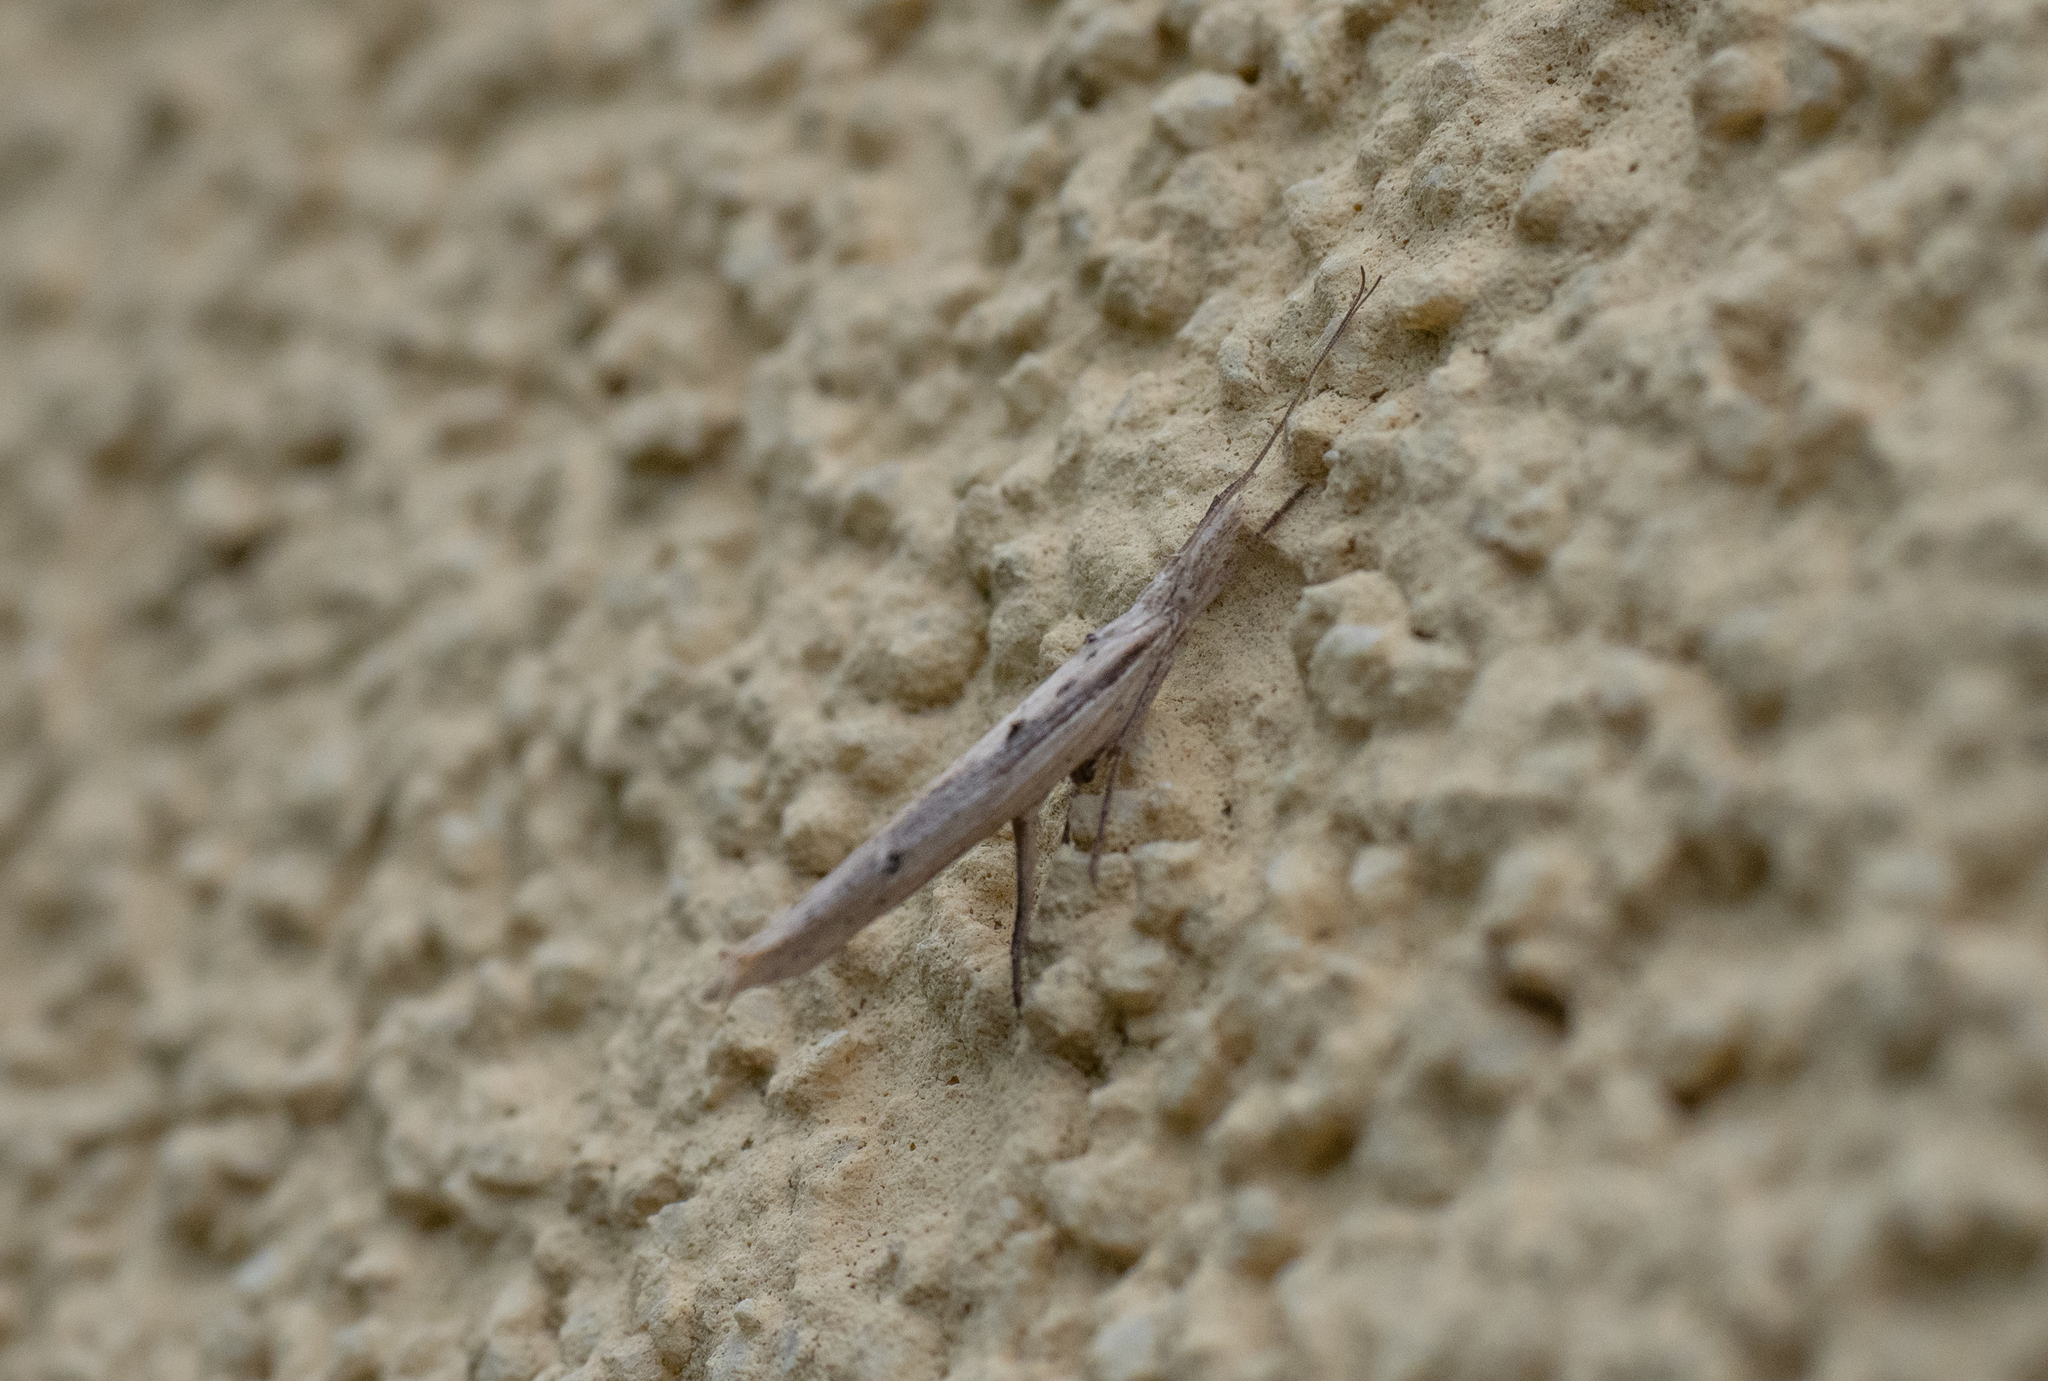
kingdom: Animalia
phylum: Arthropoda
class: Insecta
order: Lepidoptera
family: Ypsolophidae
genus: Ypsolopha
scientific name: Ypsolopha mucronella
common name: Spindle smudge
